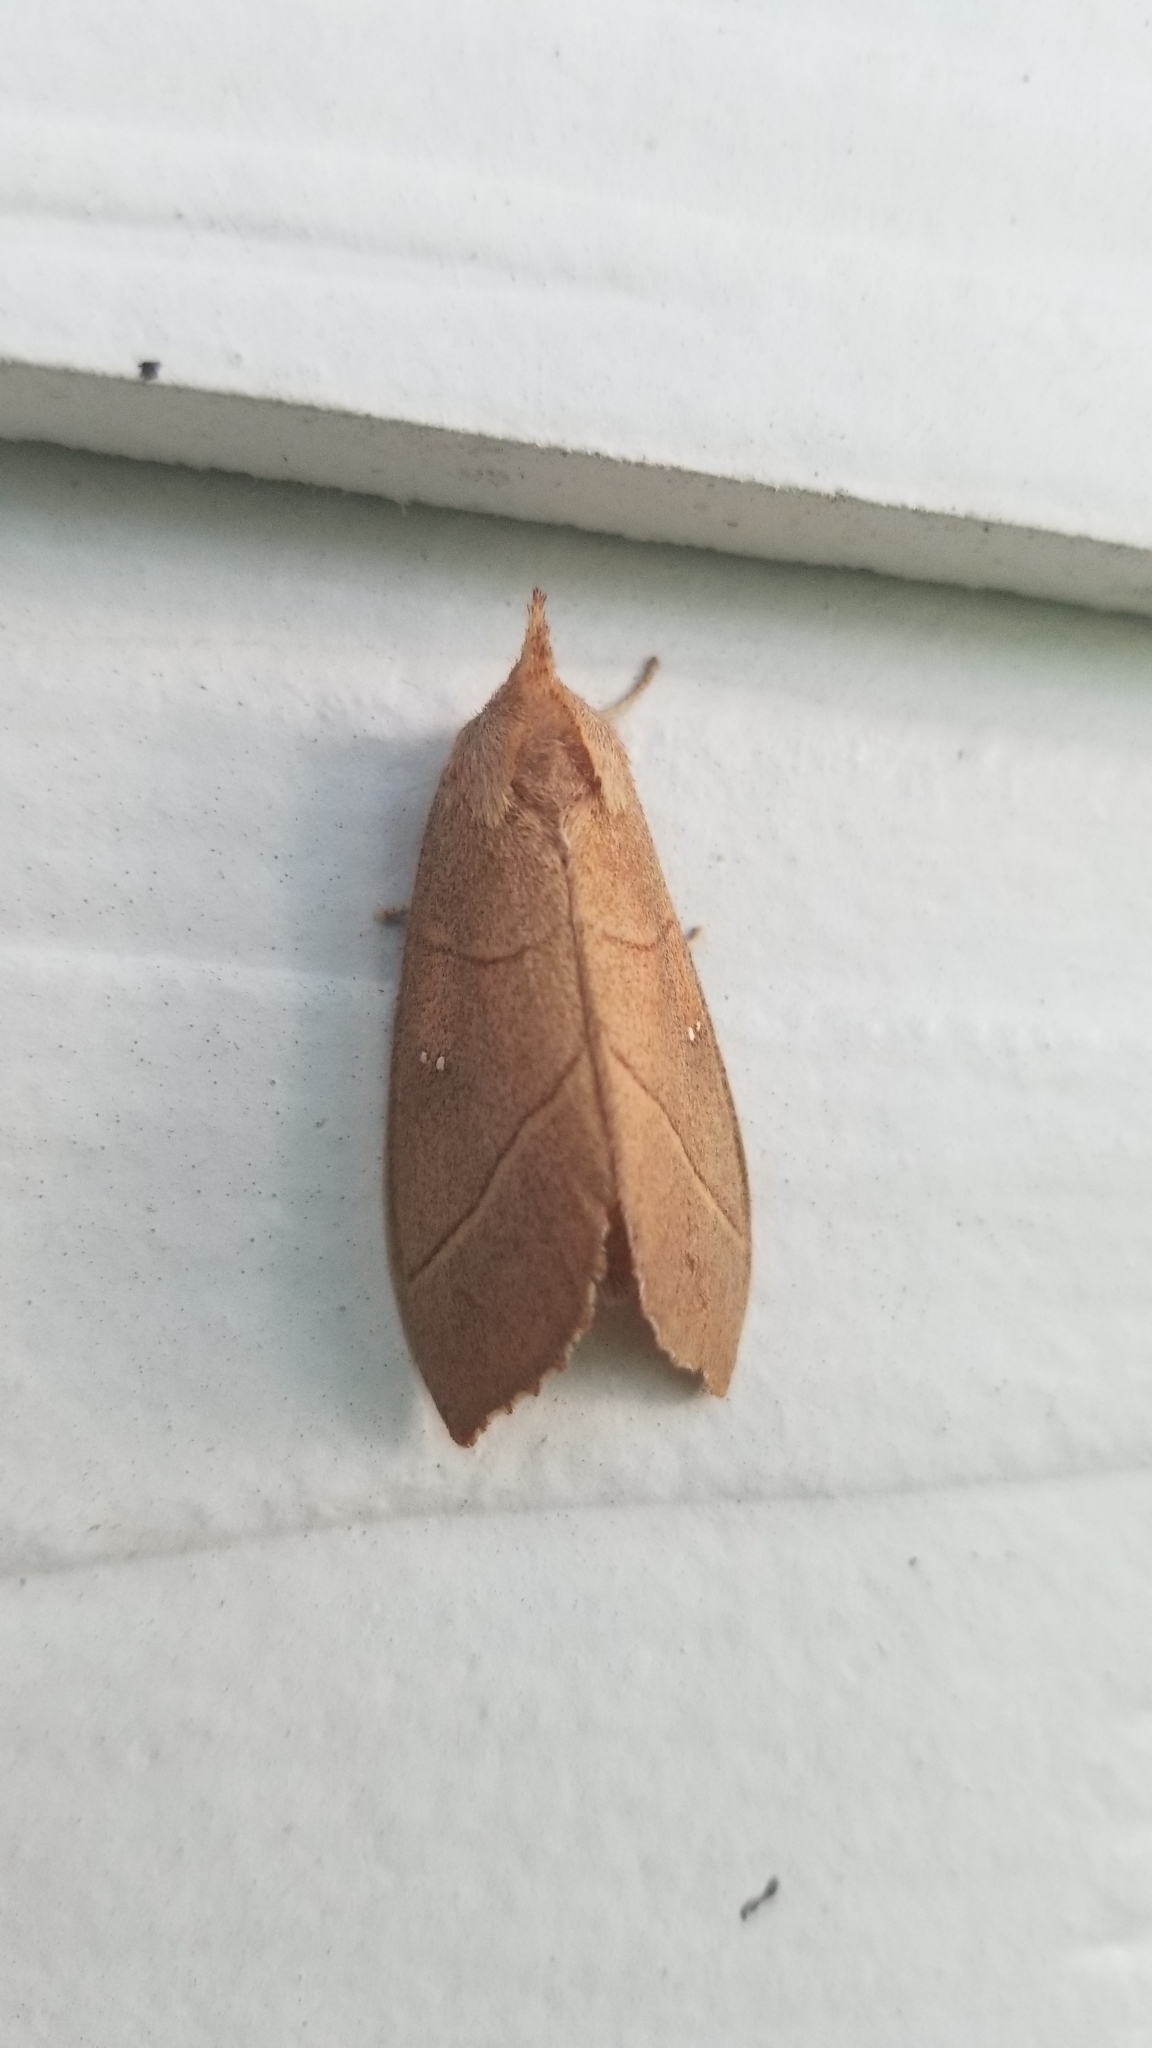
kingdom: Animalia
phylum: Arthropoda
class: Insecta
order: Lepidoptera
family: Notodontidae
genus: Nadata
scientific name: Nadata gibbosa
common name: White-dotted prominent
